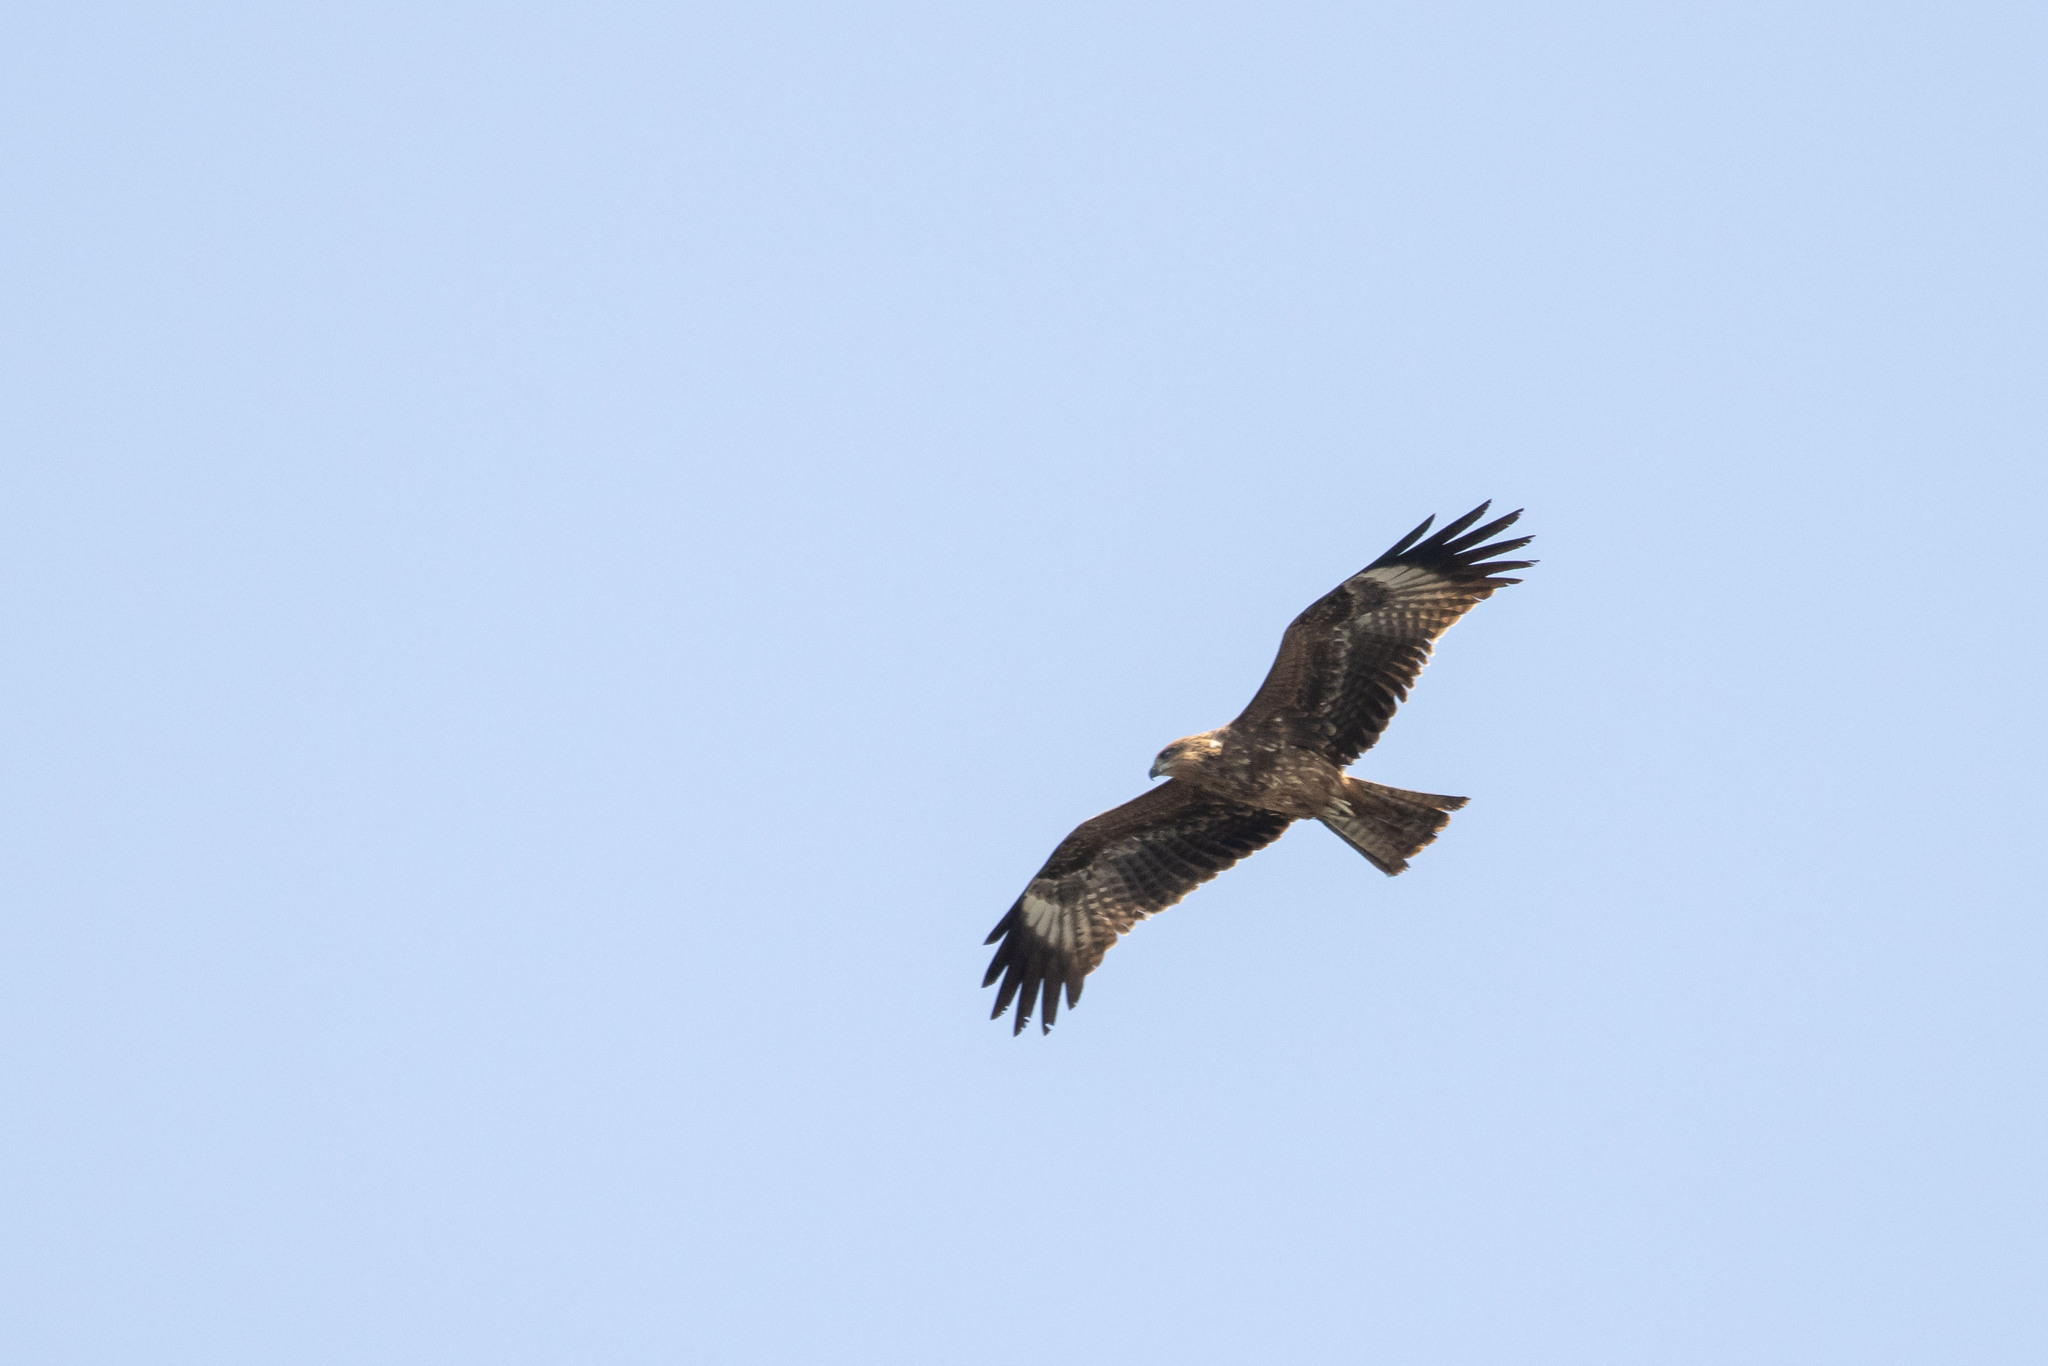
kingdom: Animalia
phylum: Chordata
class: Aves
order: Accipitriformes
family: Accipitridae
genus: Milvus
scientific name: Milvus migrans
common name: Black kite
